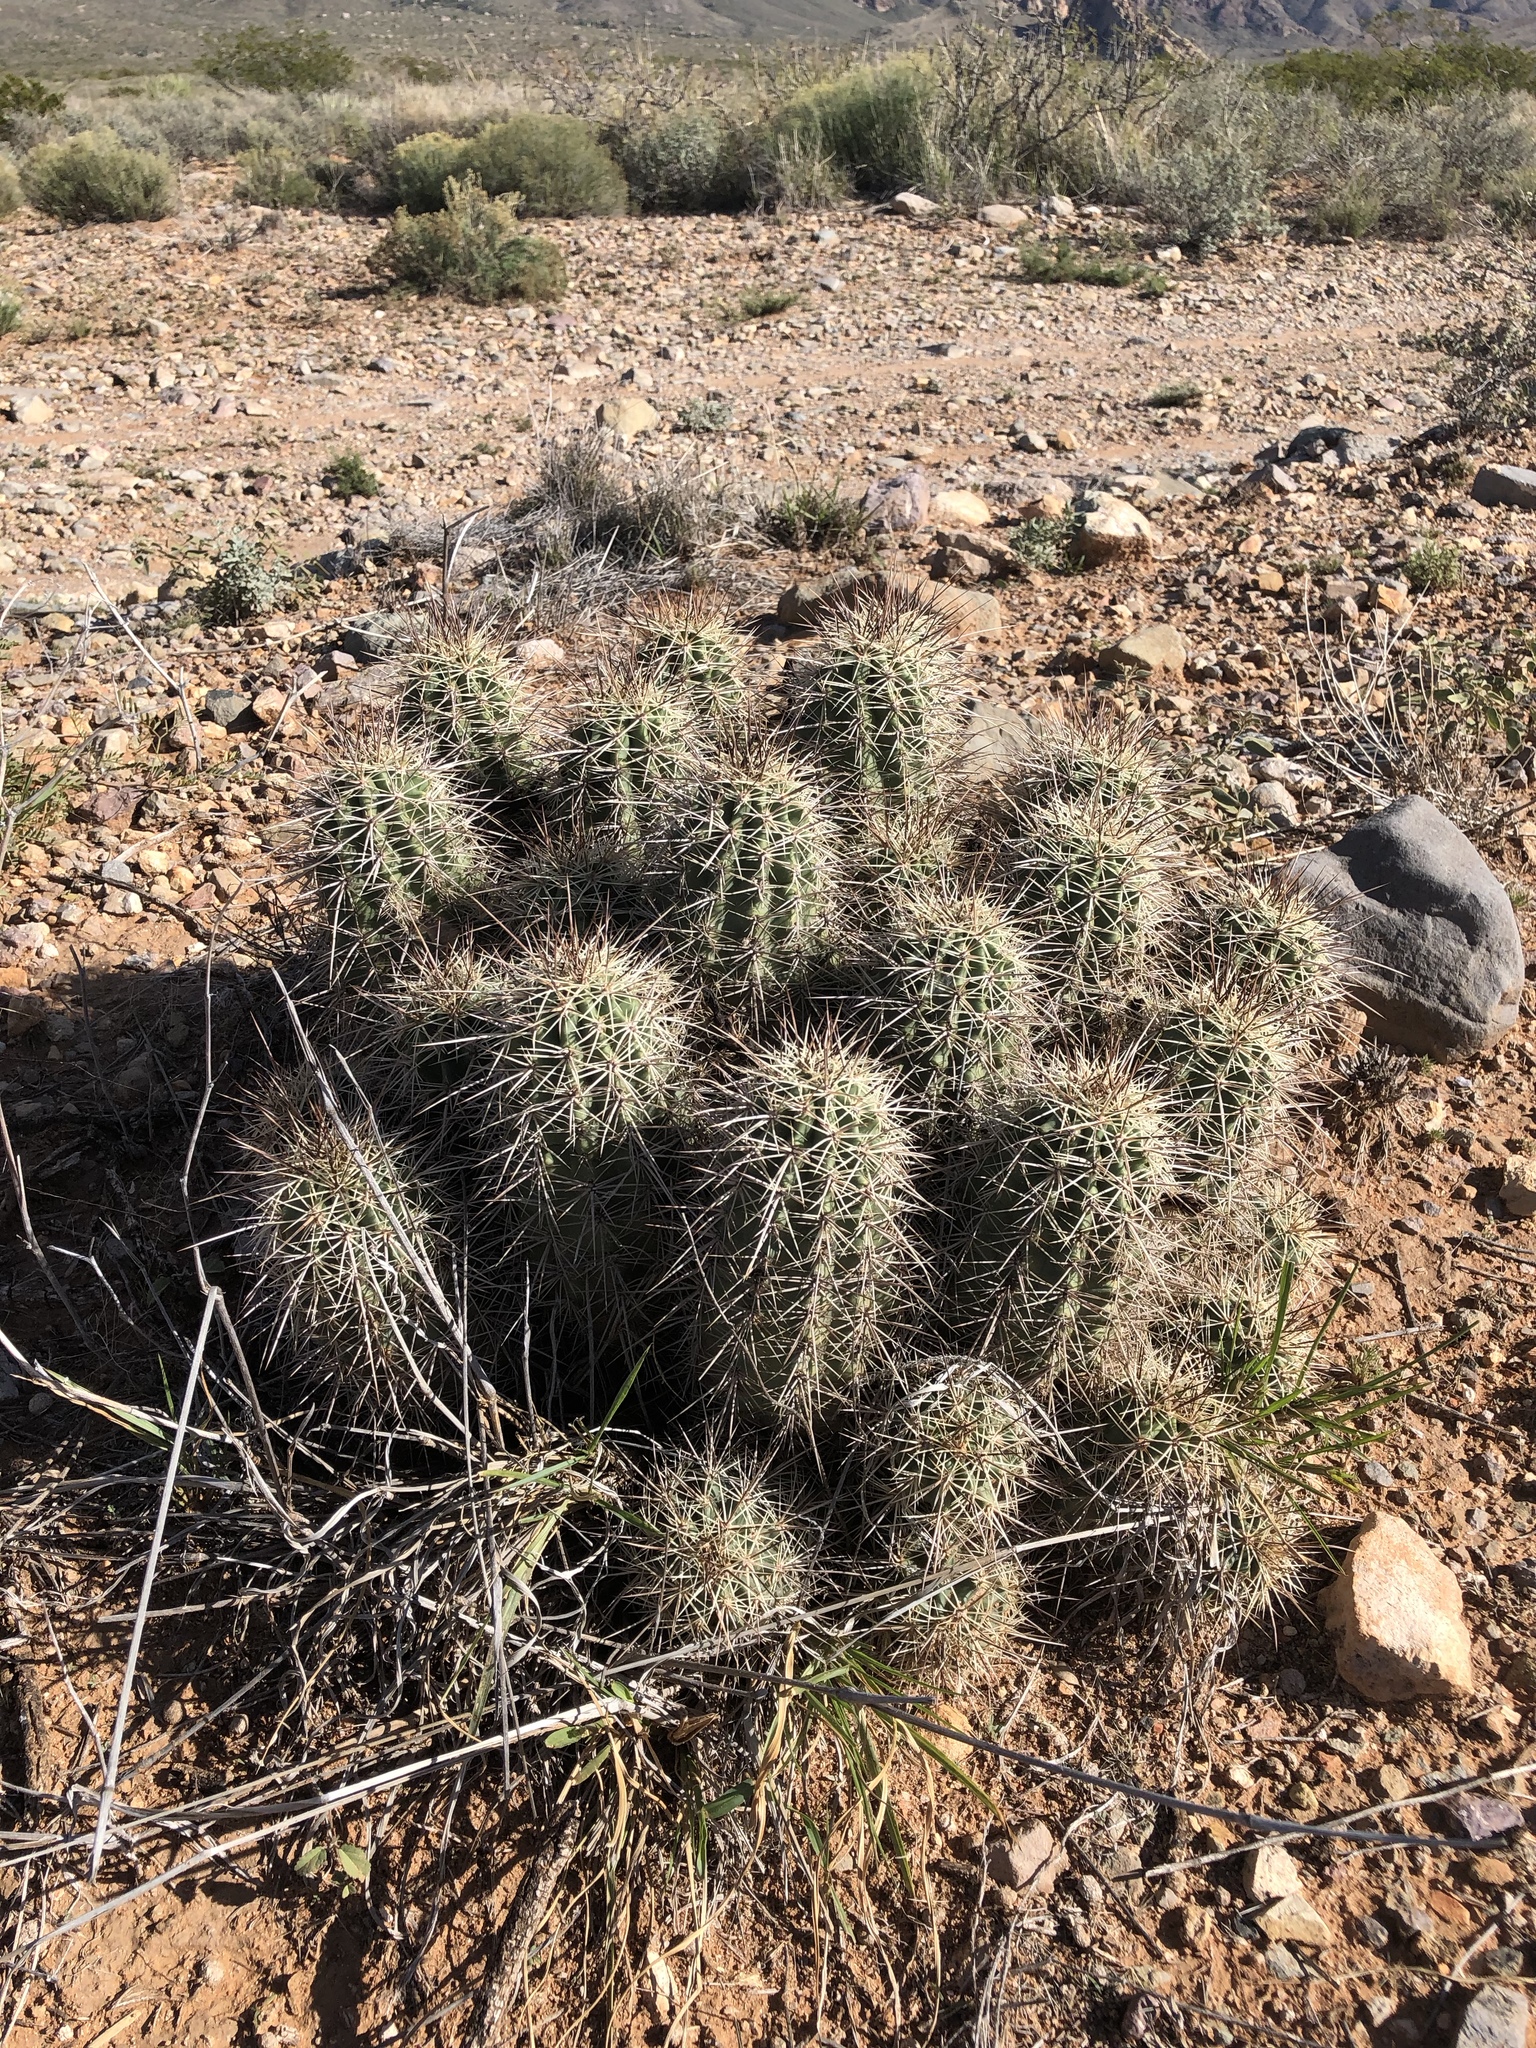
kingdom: Plantae
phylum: Tracheophyta
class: Magnoliopsida
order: Caryophyllales
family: Cactaceae
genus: Echinocereus
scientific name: Echinocereus coccineus
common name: Scarlet hedgehog cactus
